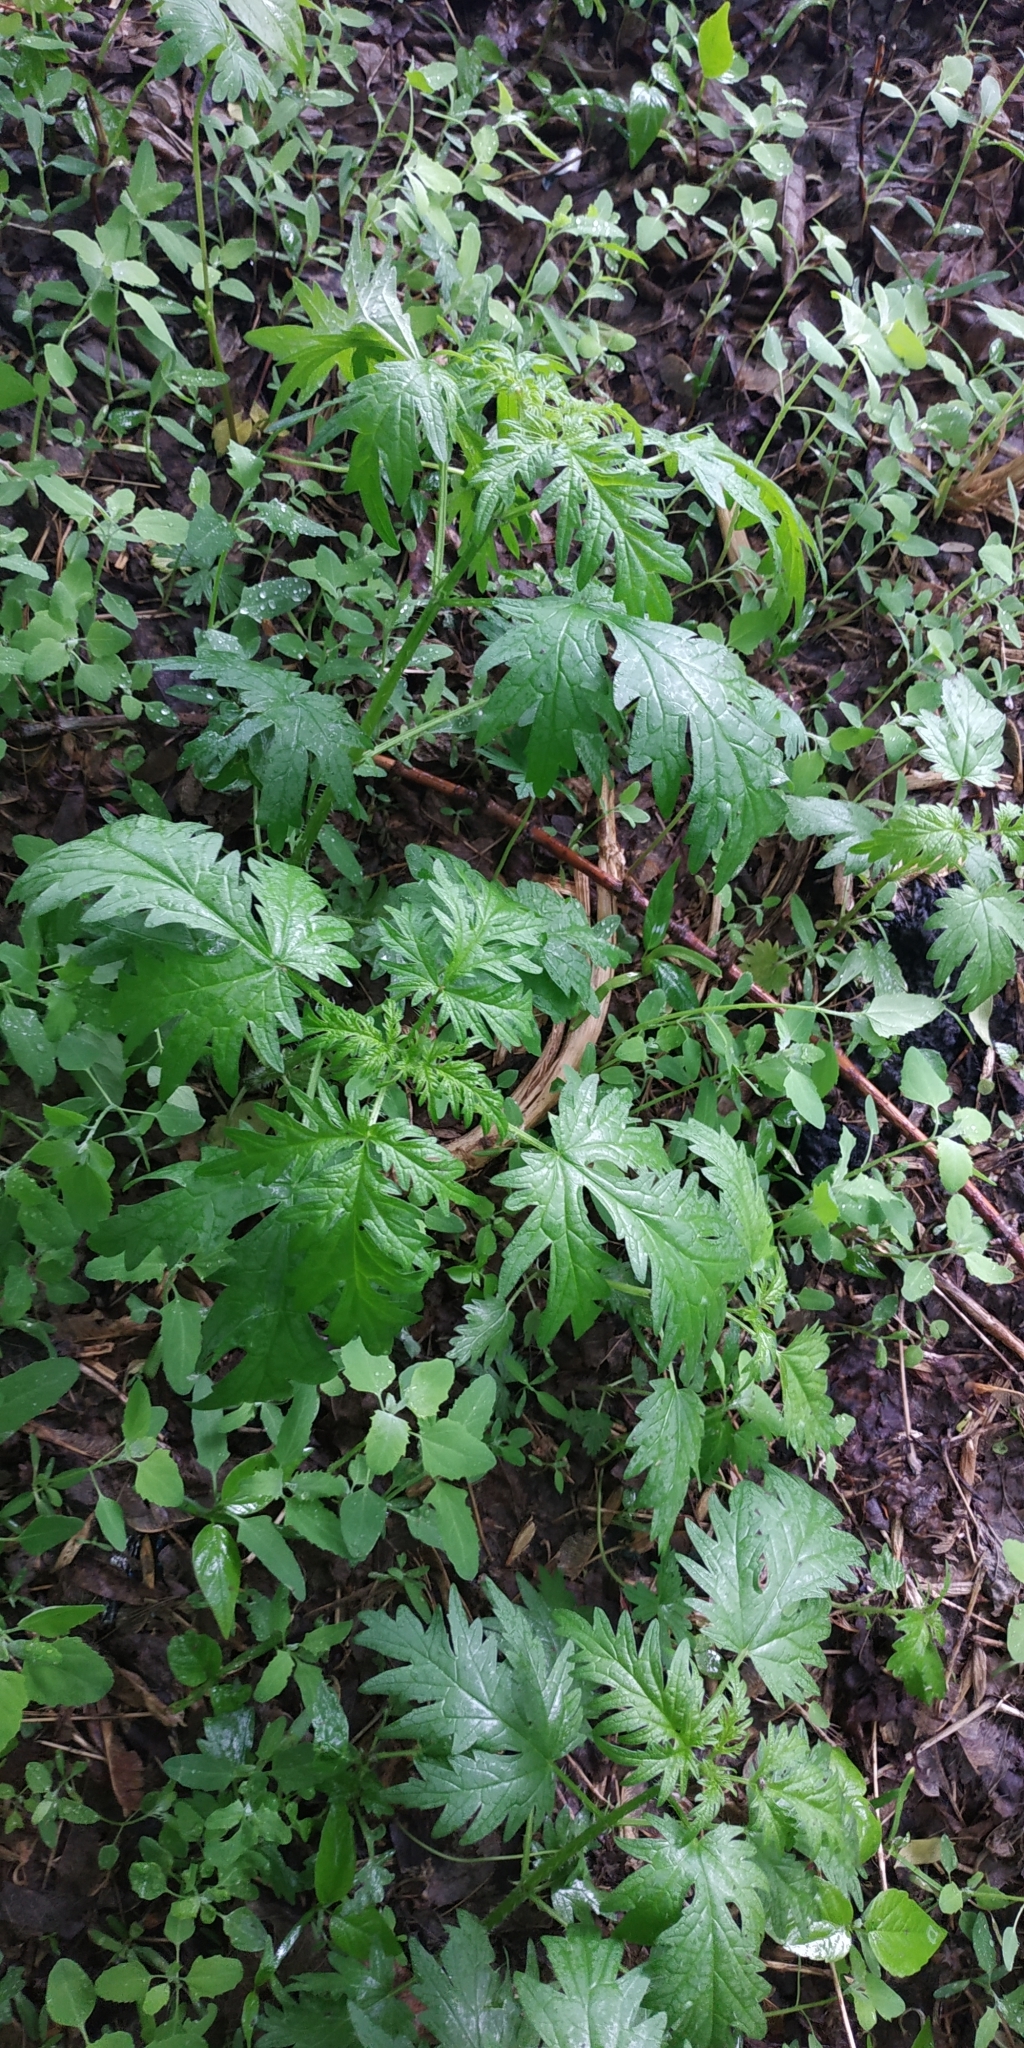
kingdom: Plantae
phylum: Tracheophyta
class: Magnoliopsida
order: Rosales
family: Urticaceae
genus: Urtica
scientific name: Urtica cannabina
